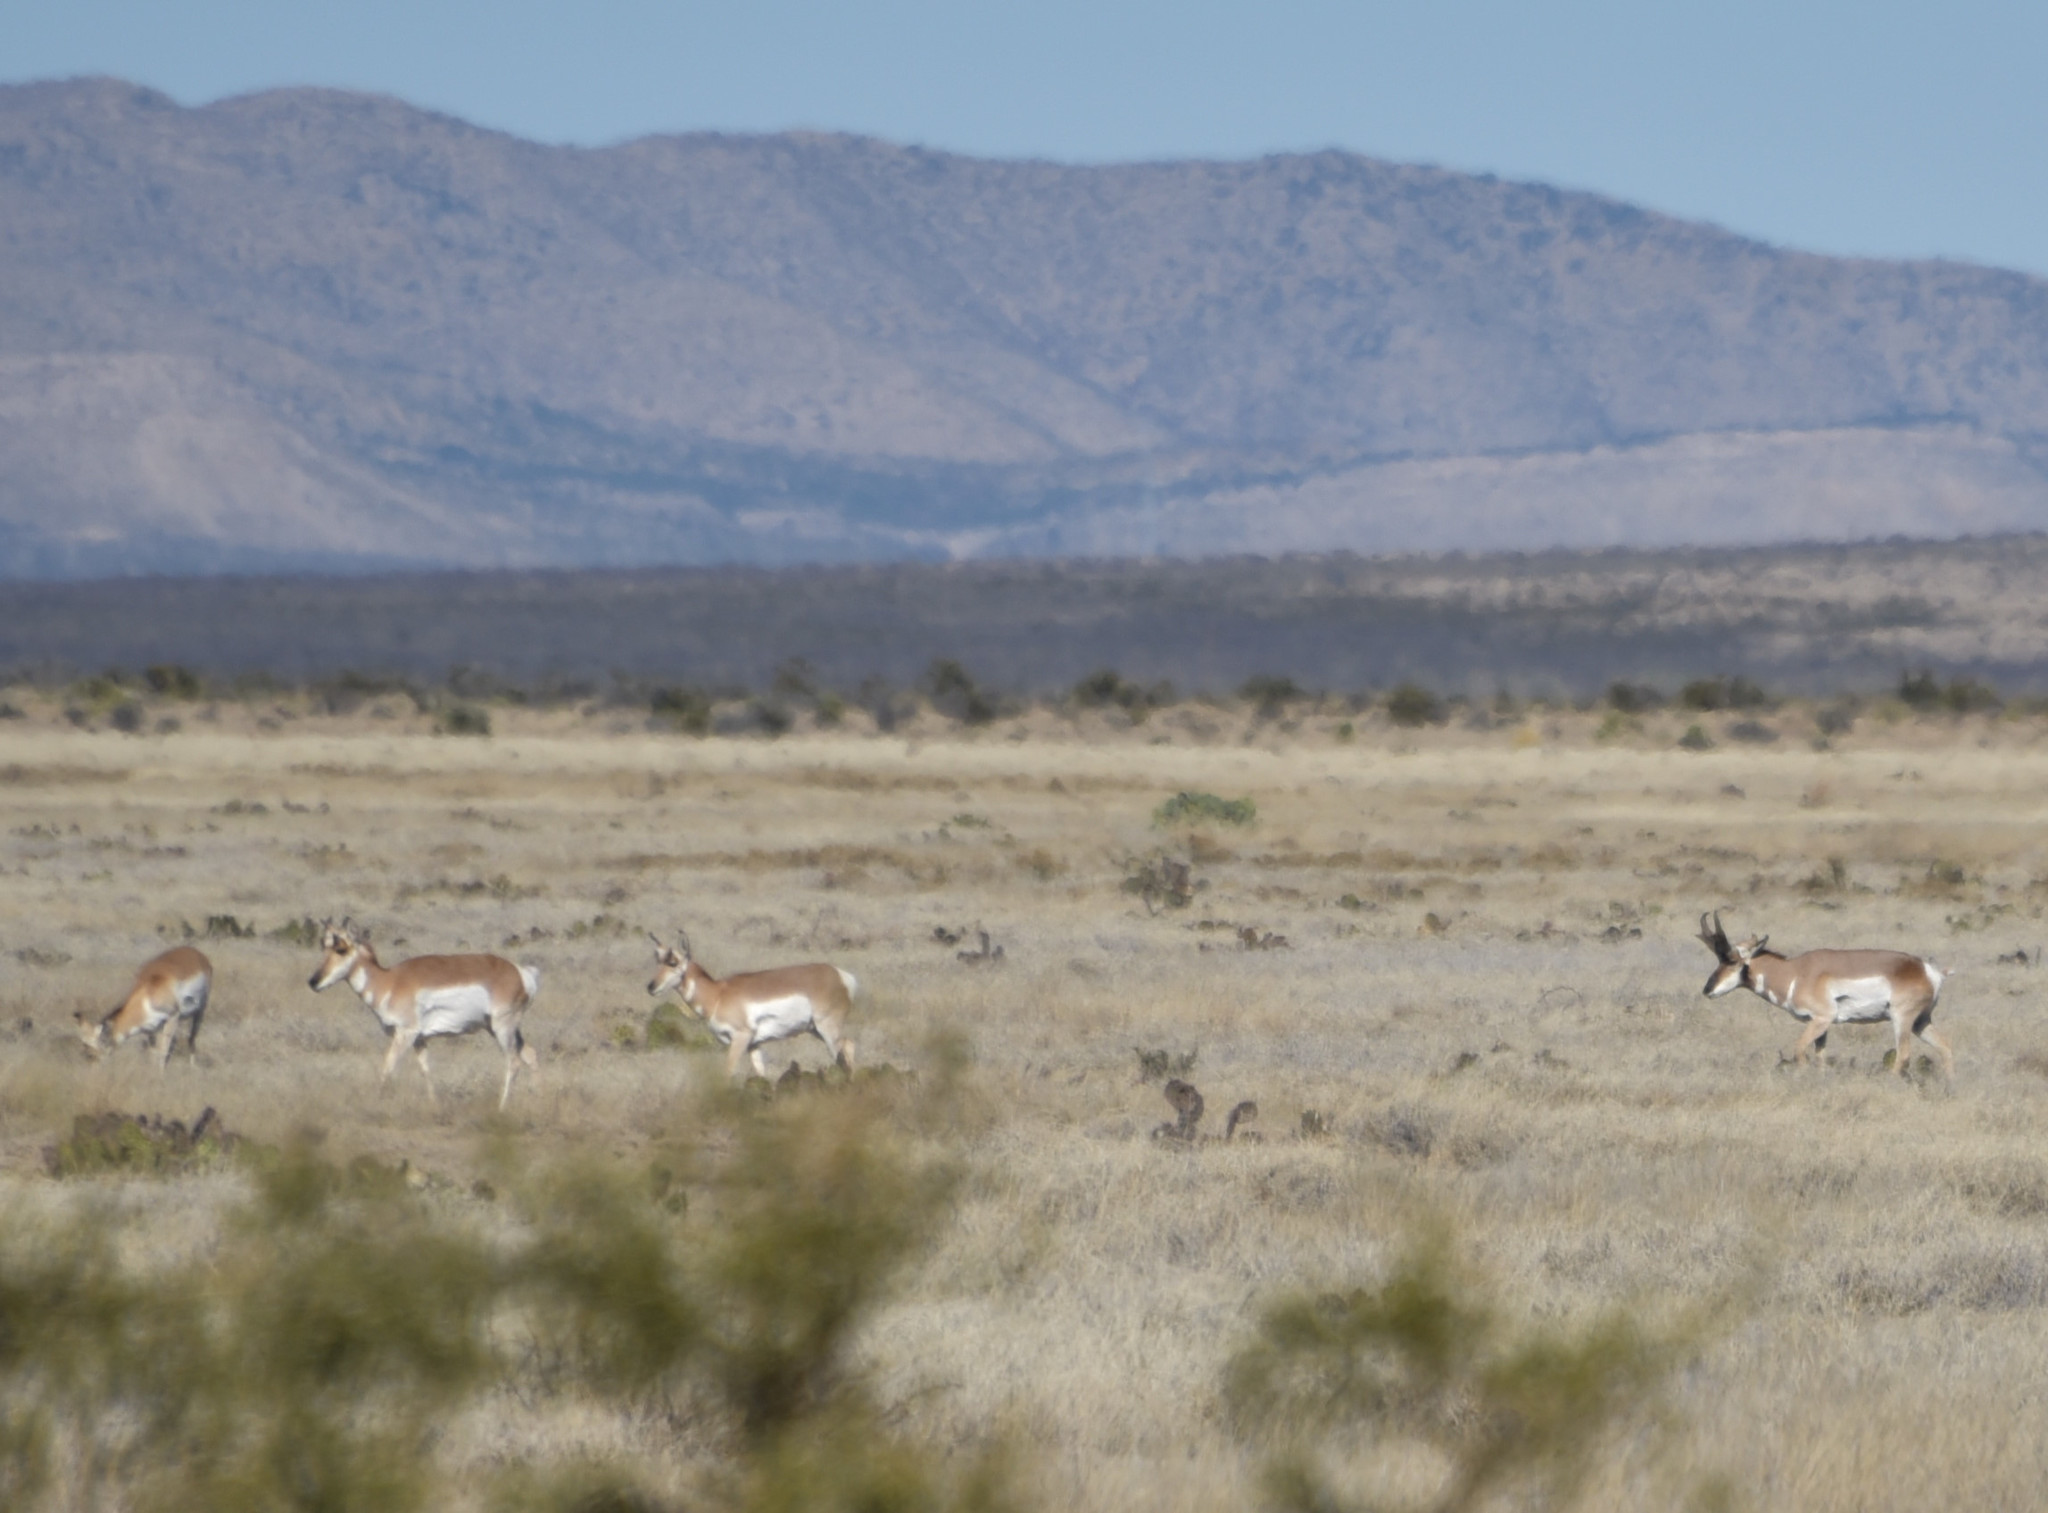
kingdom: Animalia
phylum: Chordata
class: Mammalia
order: Artiodactyla
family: Antilocapridae
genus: Antilocapra
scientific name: Antilocapra americana
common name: Pronghorn
